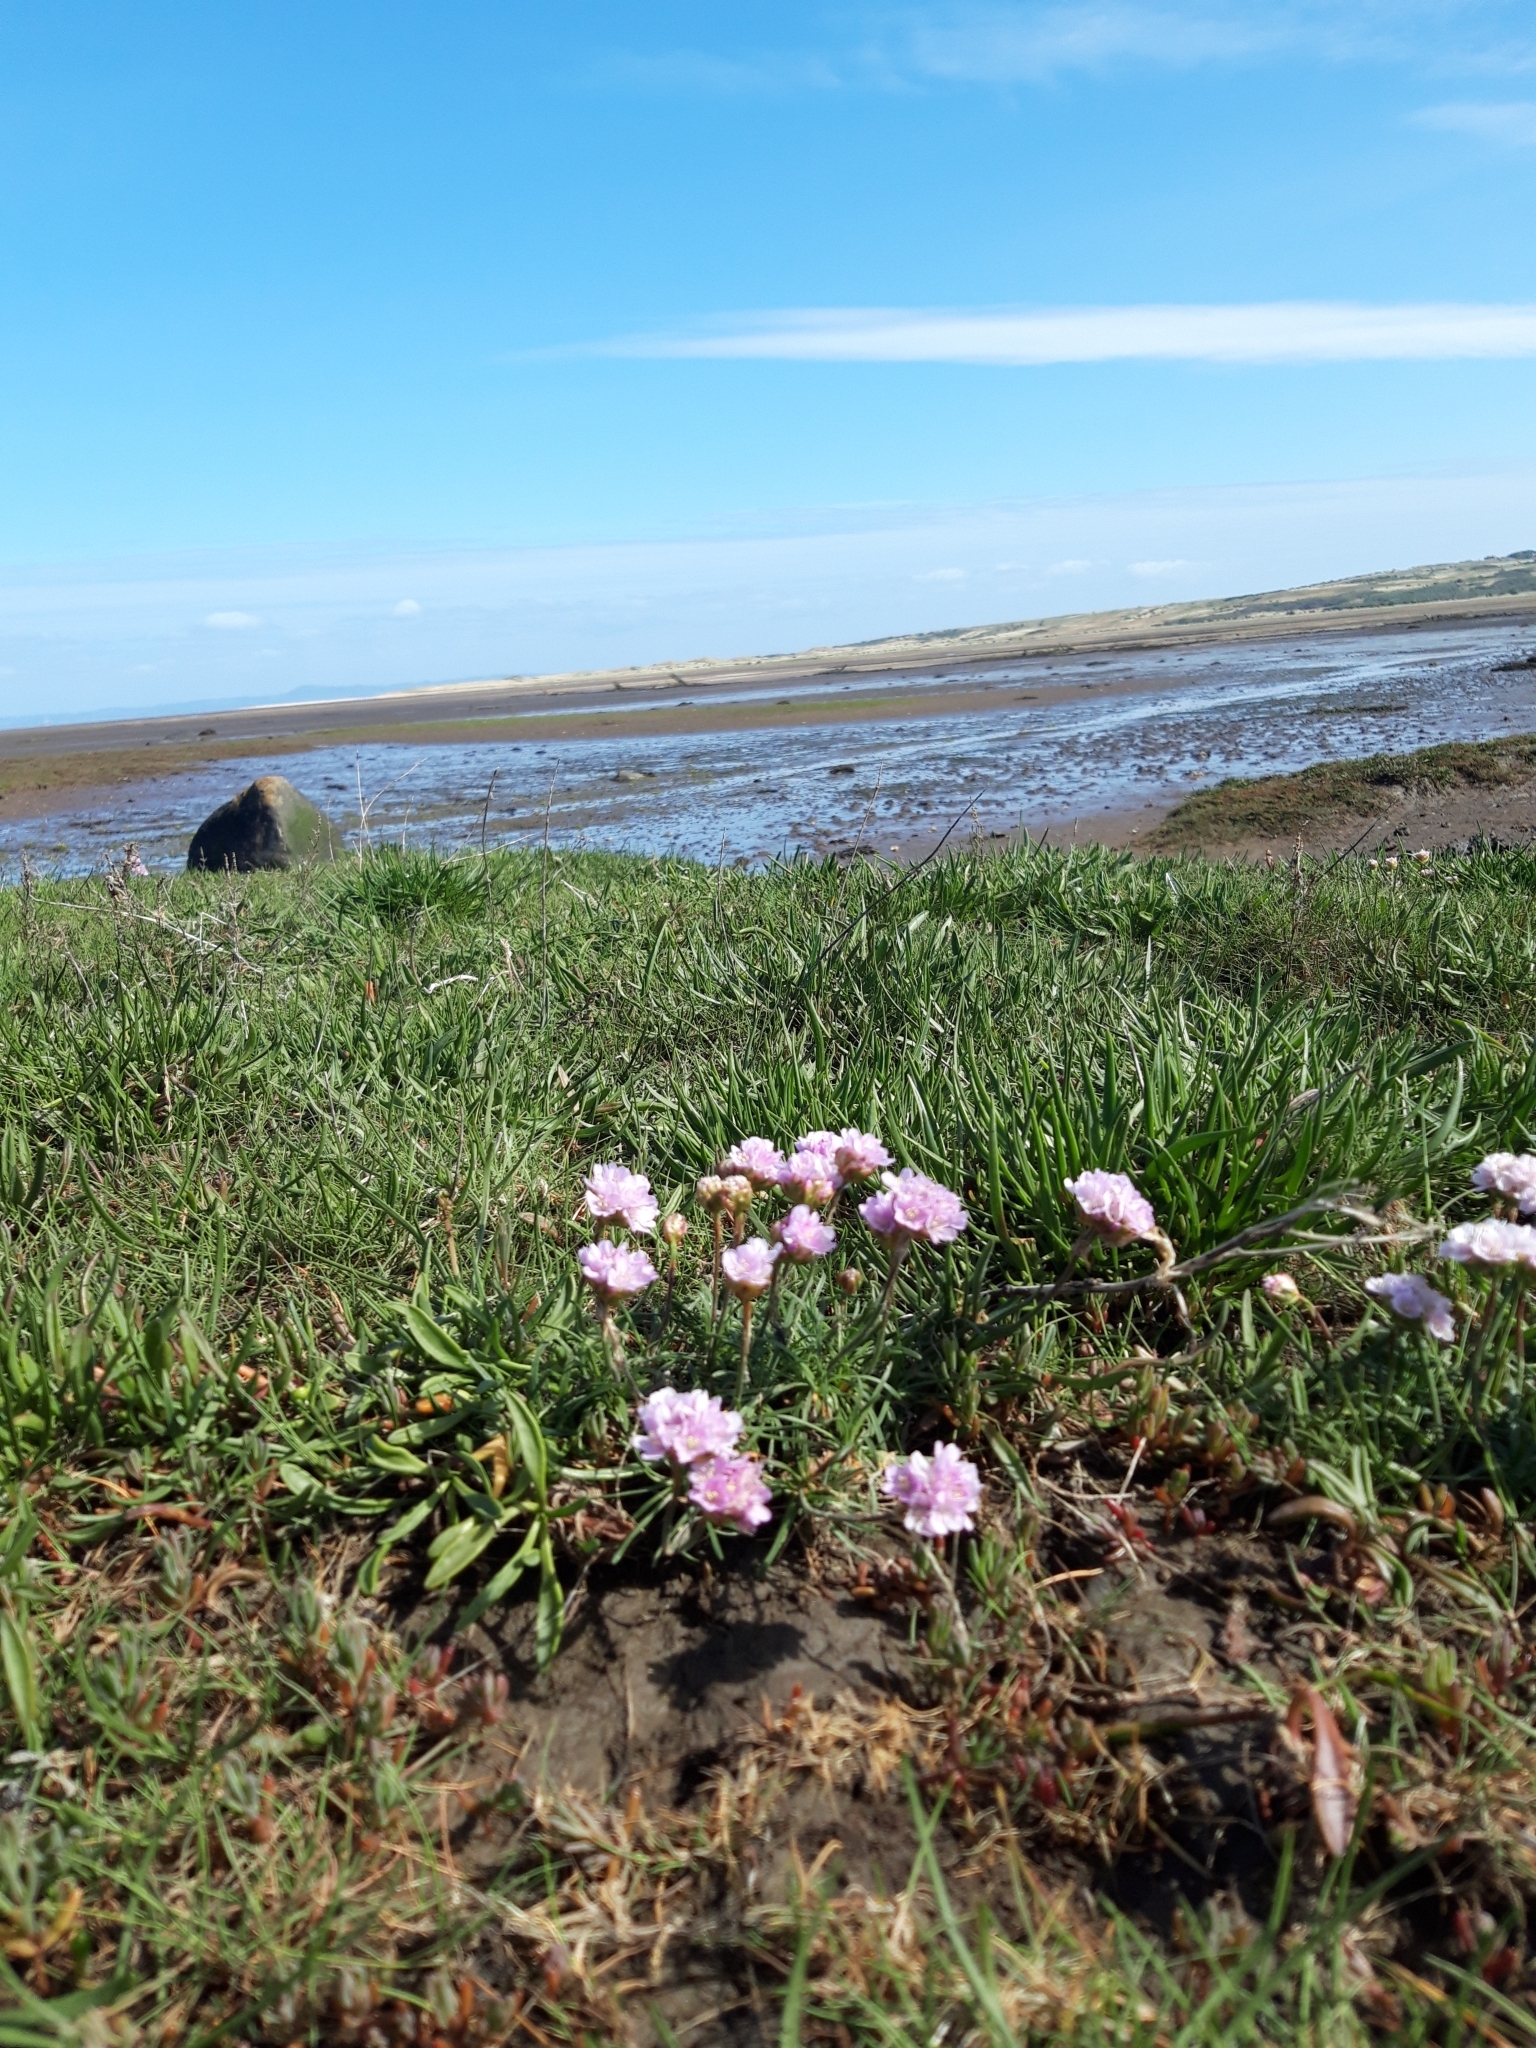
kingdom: Plantae
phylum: Tracheophyta
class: Magnoliopsida
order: Caryophyllales
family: Plumbaginaceae
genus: Armeria
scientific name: Armeria maritima
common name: Thrift
